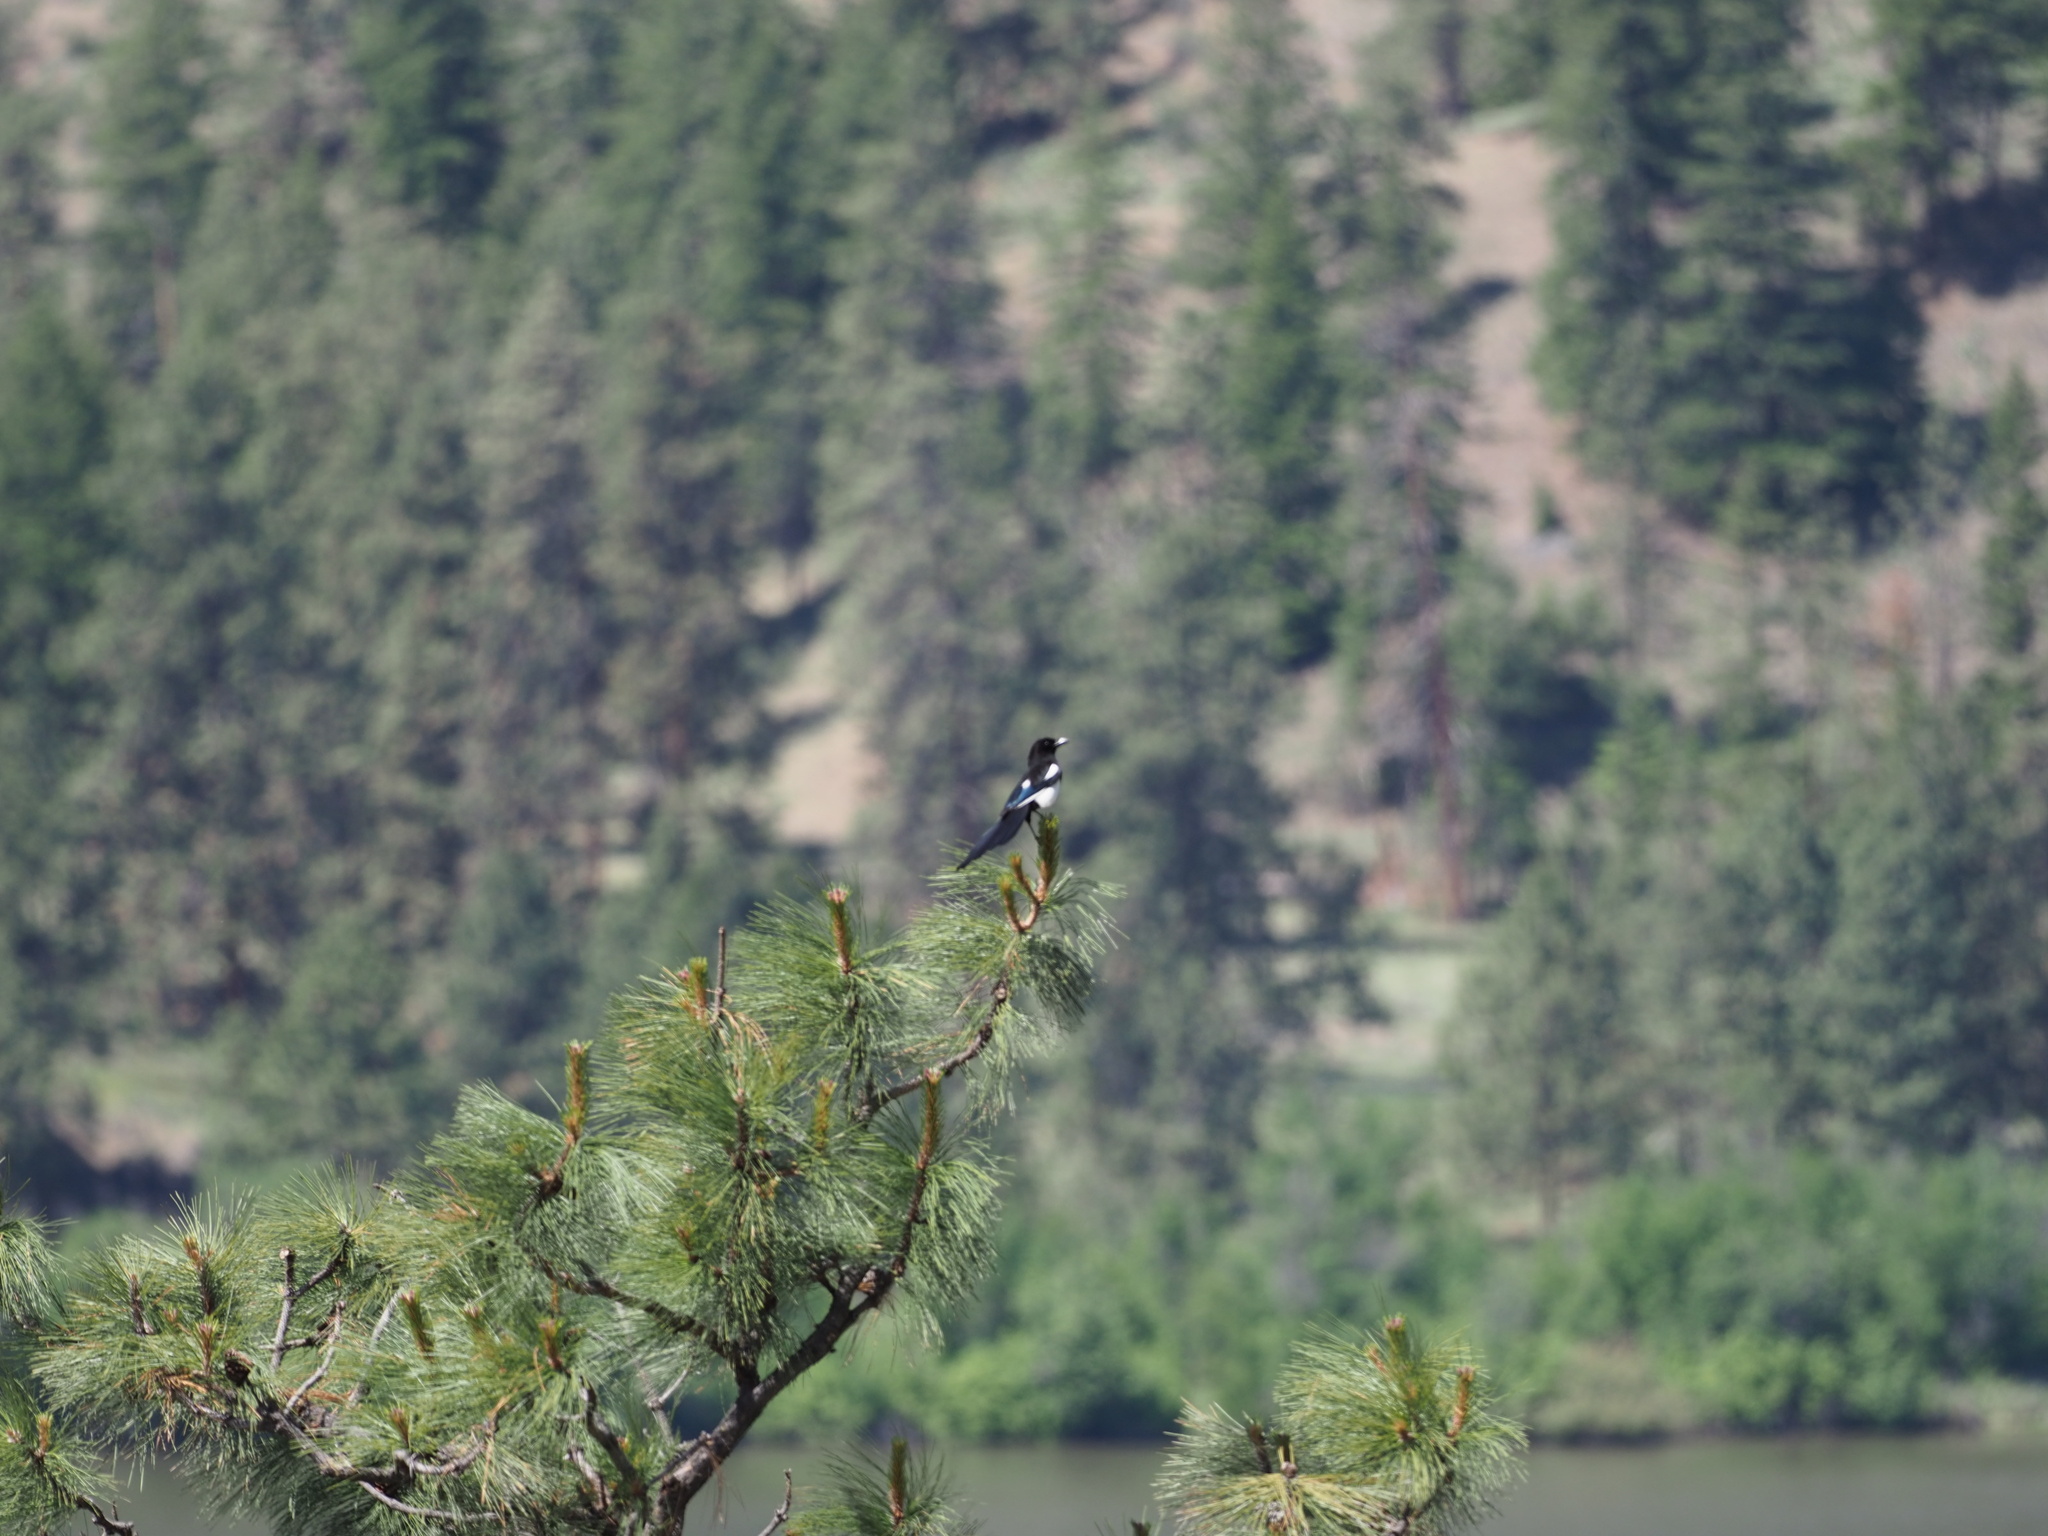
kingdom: Animalia
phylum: Chordata
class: Aves
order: Passeriformes
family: Corvidae
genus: Pica
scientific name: Pica hudsonia
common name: Black-billed magpie
